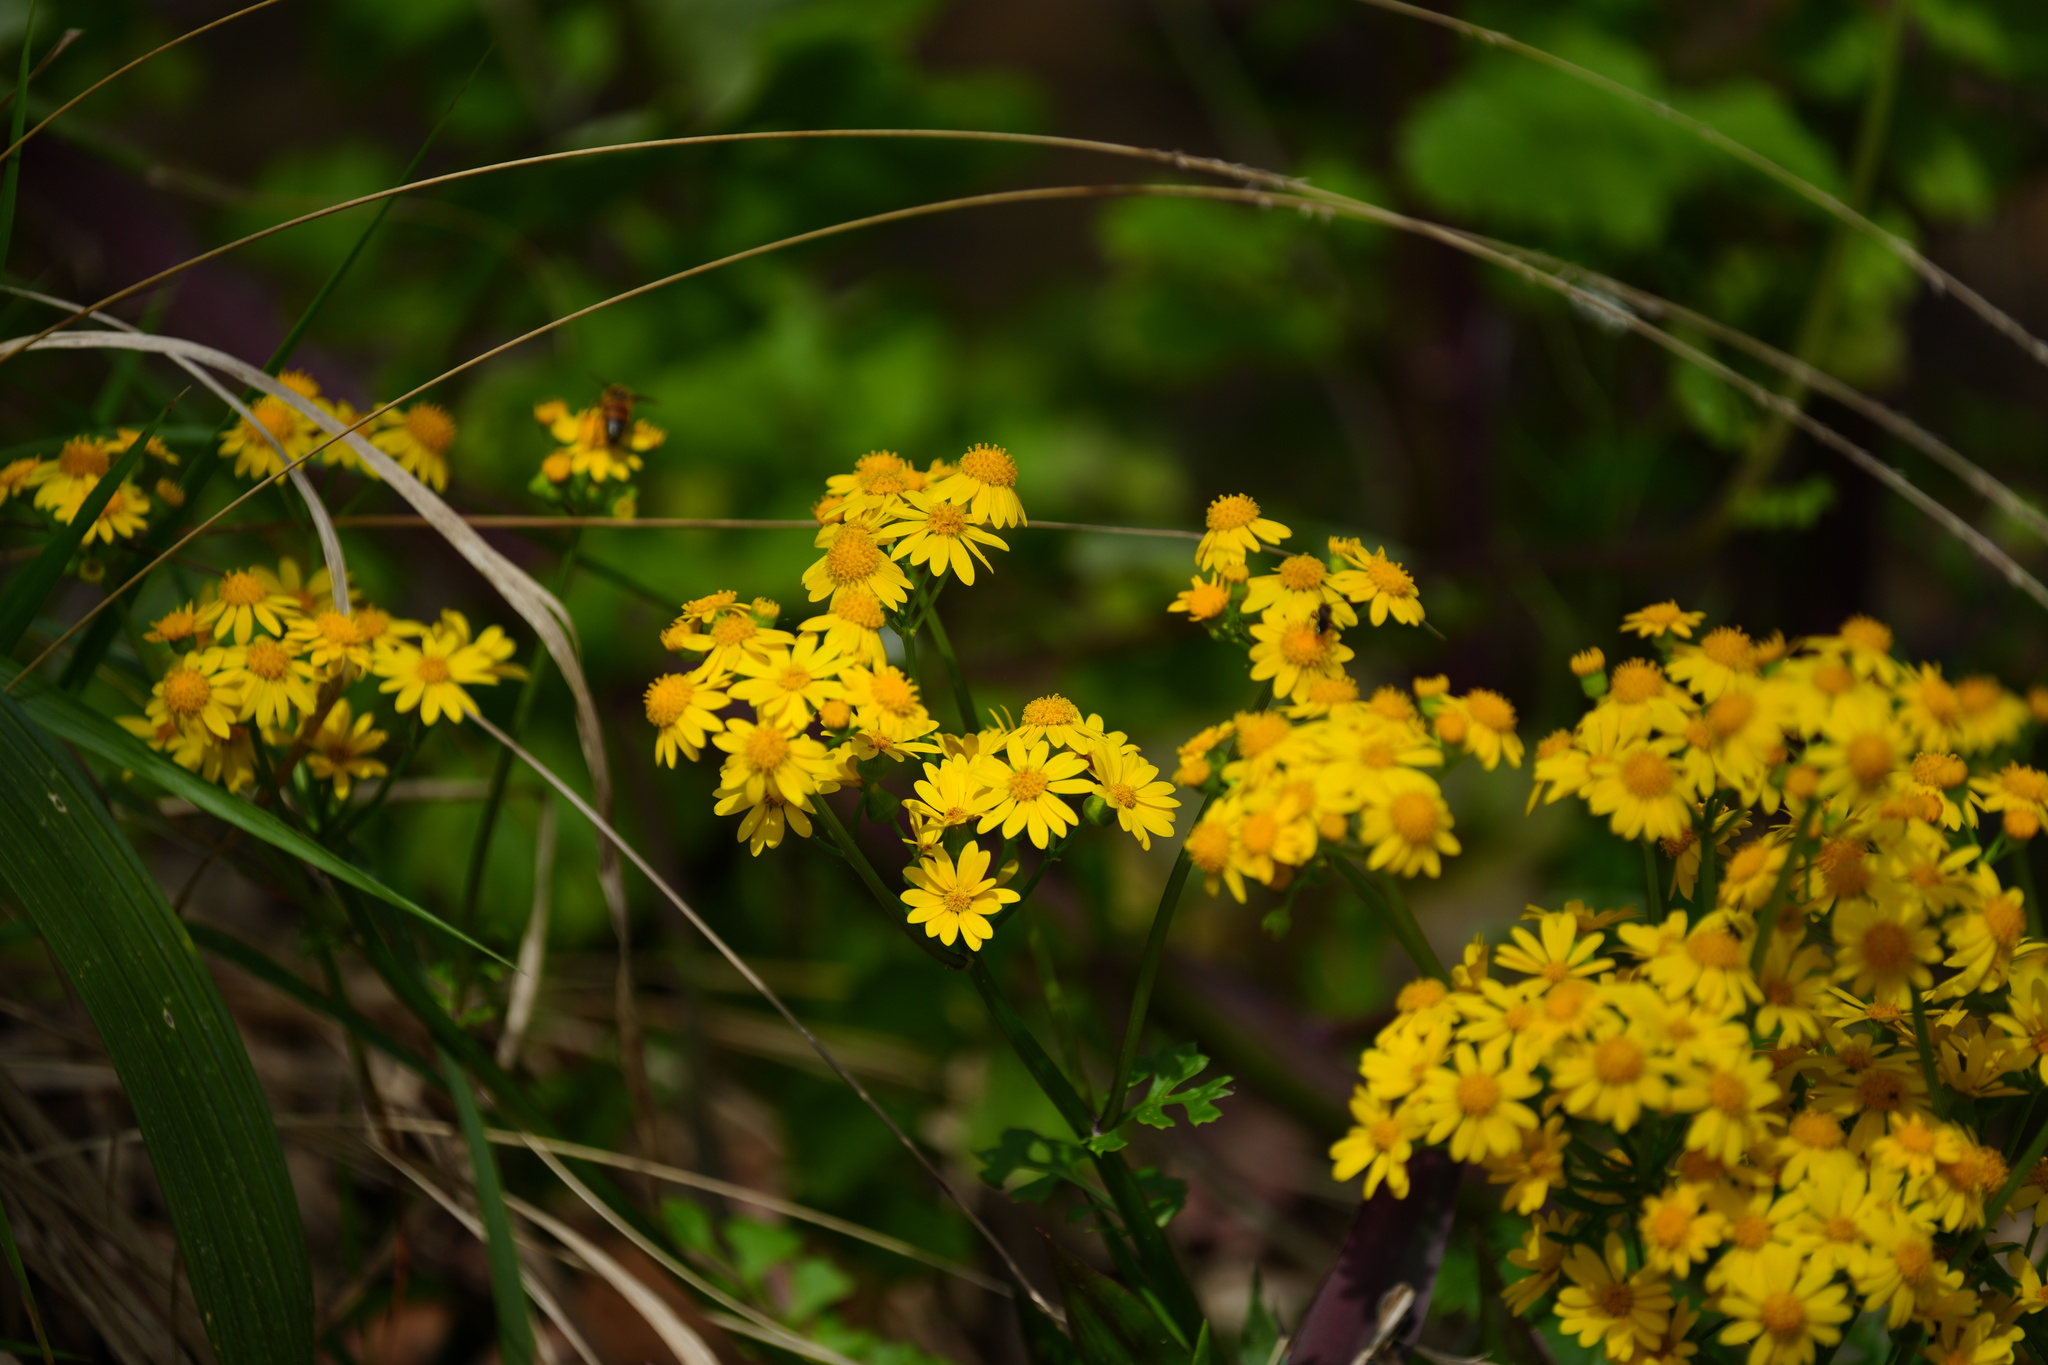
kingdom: Plantae
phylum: Tracheophyta
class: Magnoliopsida
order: Asterales
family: Asteraceae
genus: Packera
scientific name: Packera glabella
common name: Butterweed
